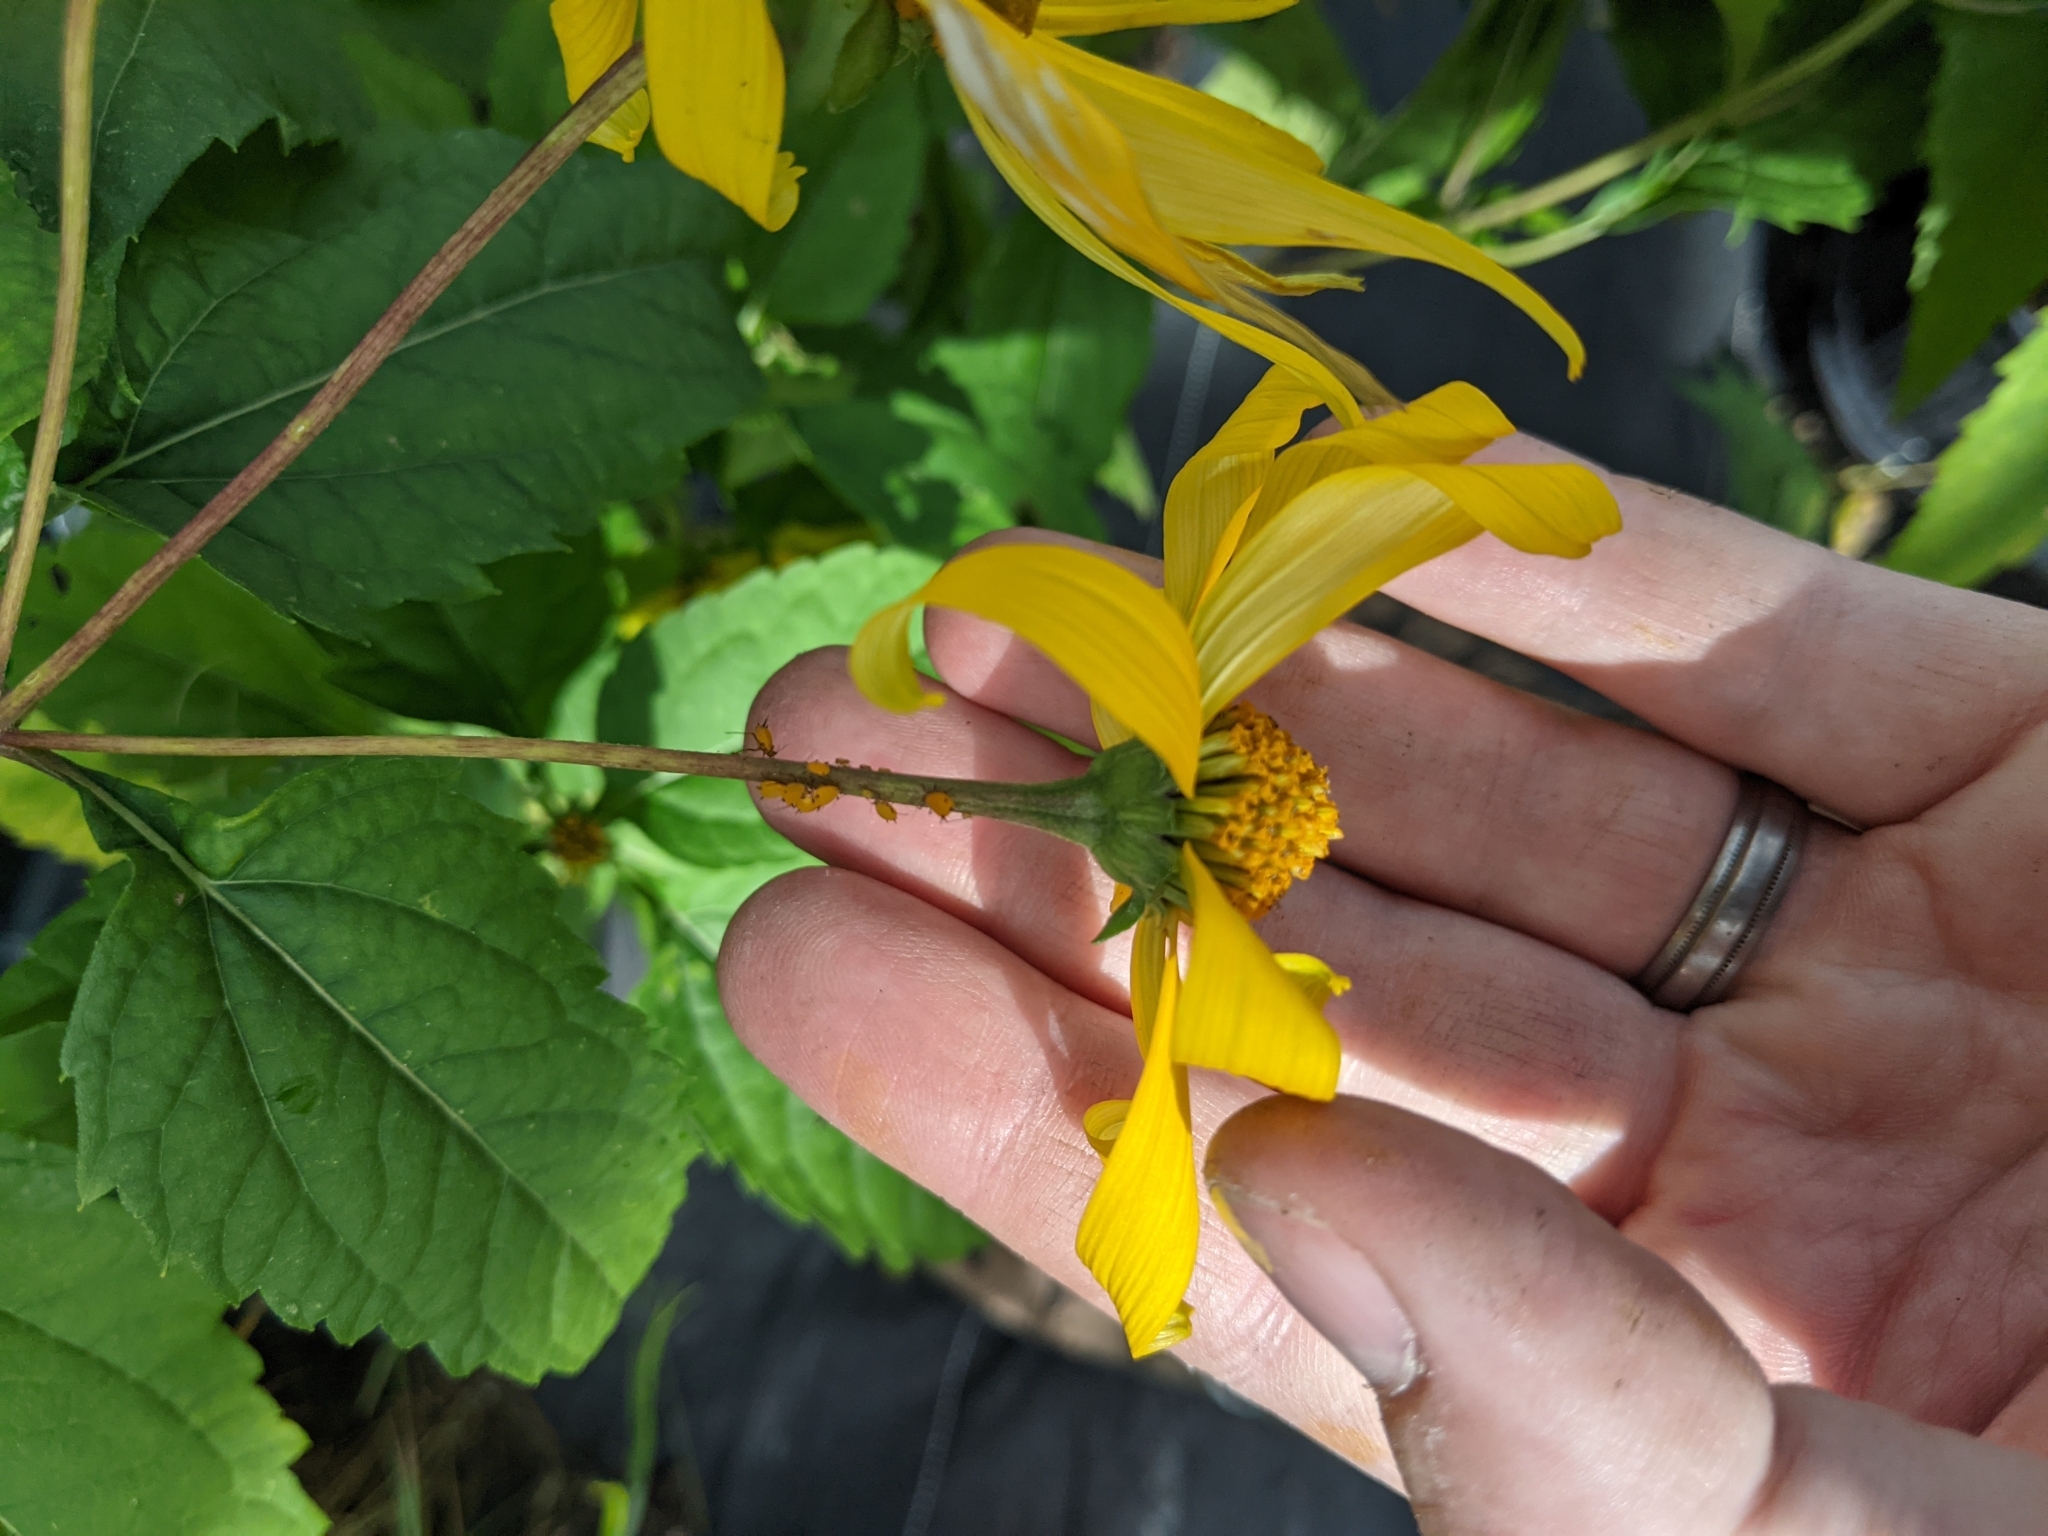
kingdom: Animalia
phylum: Arthropoda
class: Insecta
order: Hemiptera
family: Aphididae
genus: Aphis
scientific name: Aphis nerii
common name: Oleander aphid
